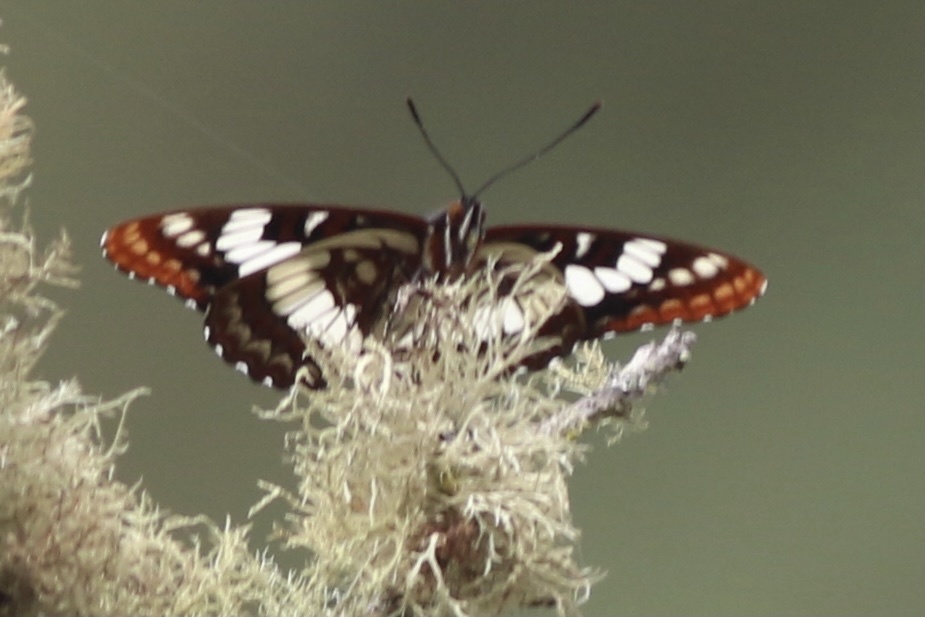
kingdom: Animalia
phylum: Arthropoda
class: Insecta
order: Lepidoptera
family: Nymphalidae
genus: Limenitis
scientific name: Limenitis lorquini
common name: Lorquin's admiral
